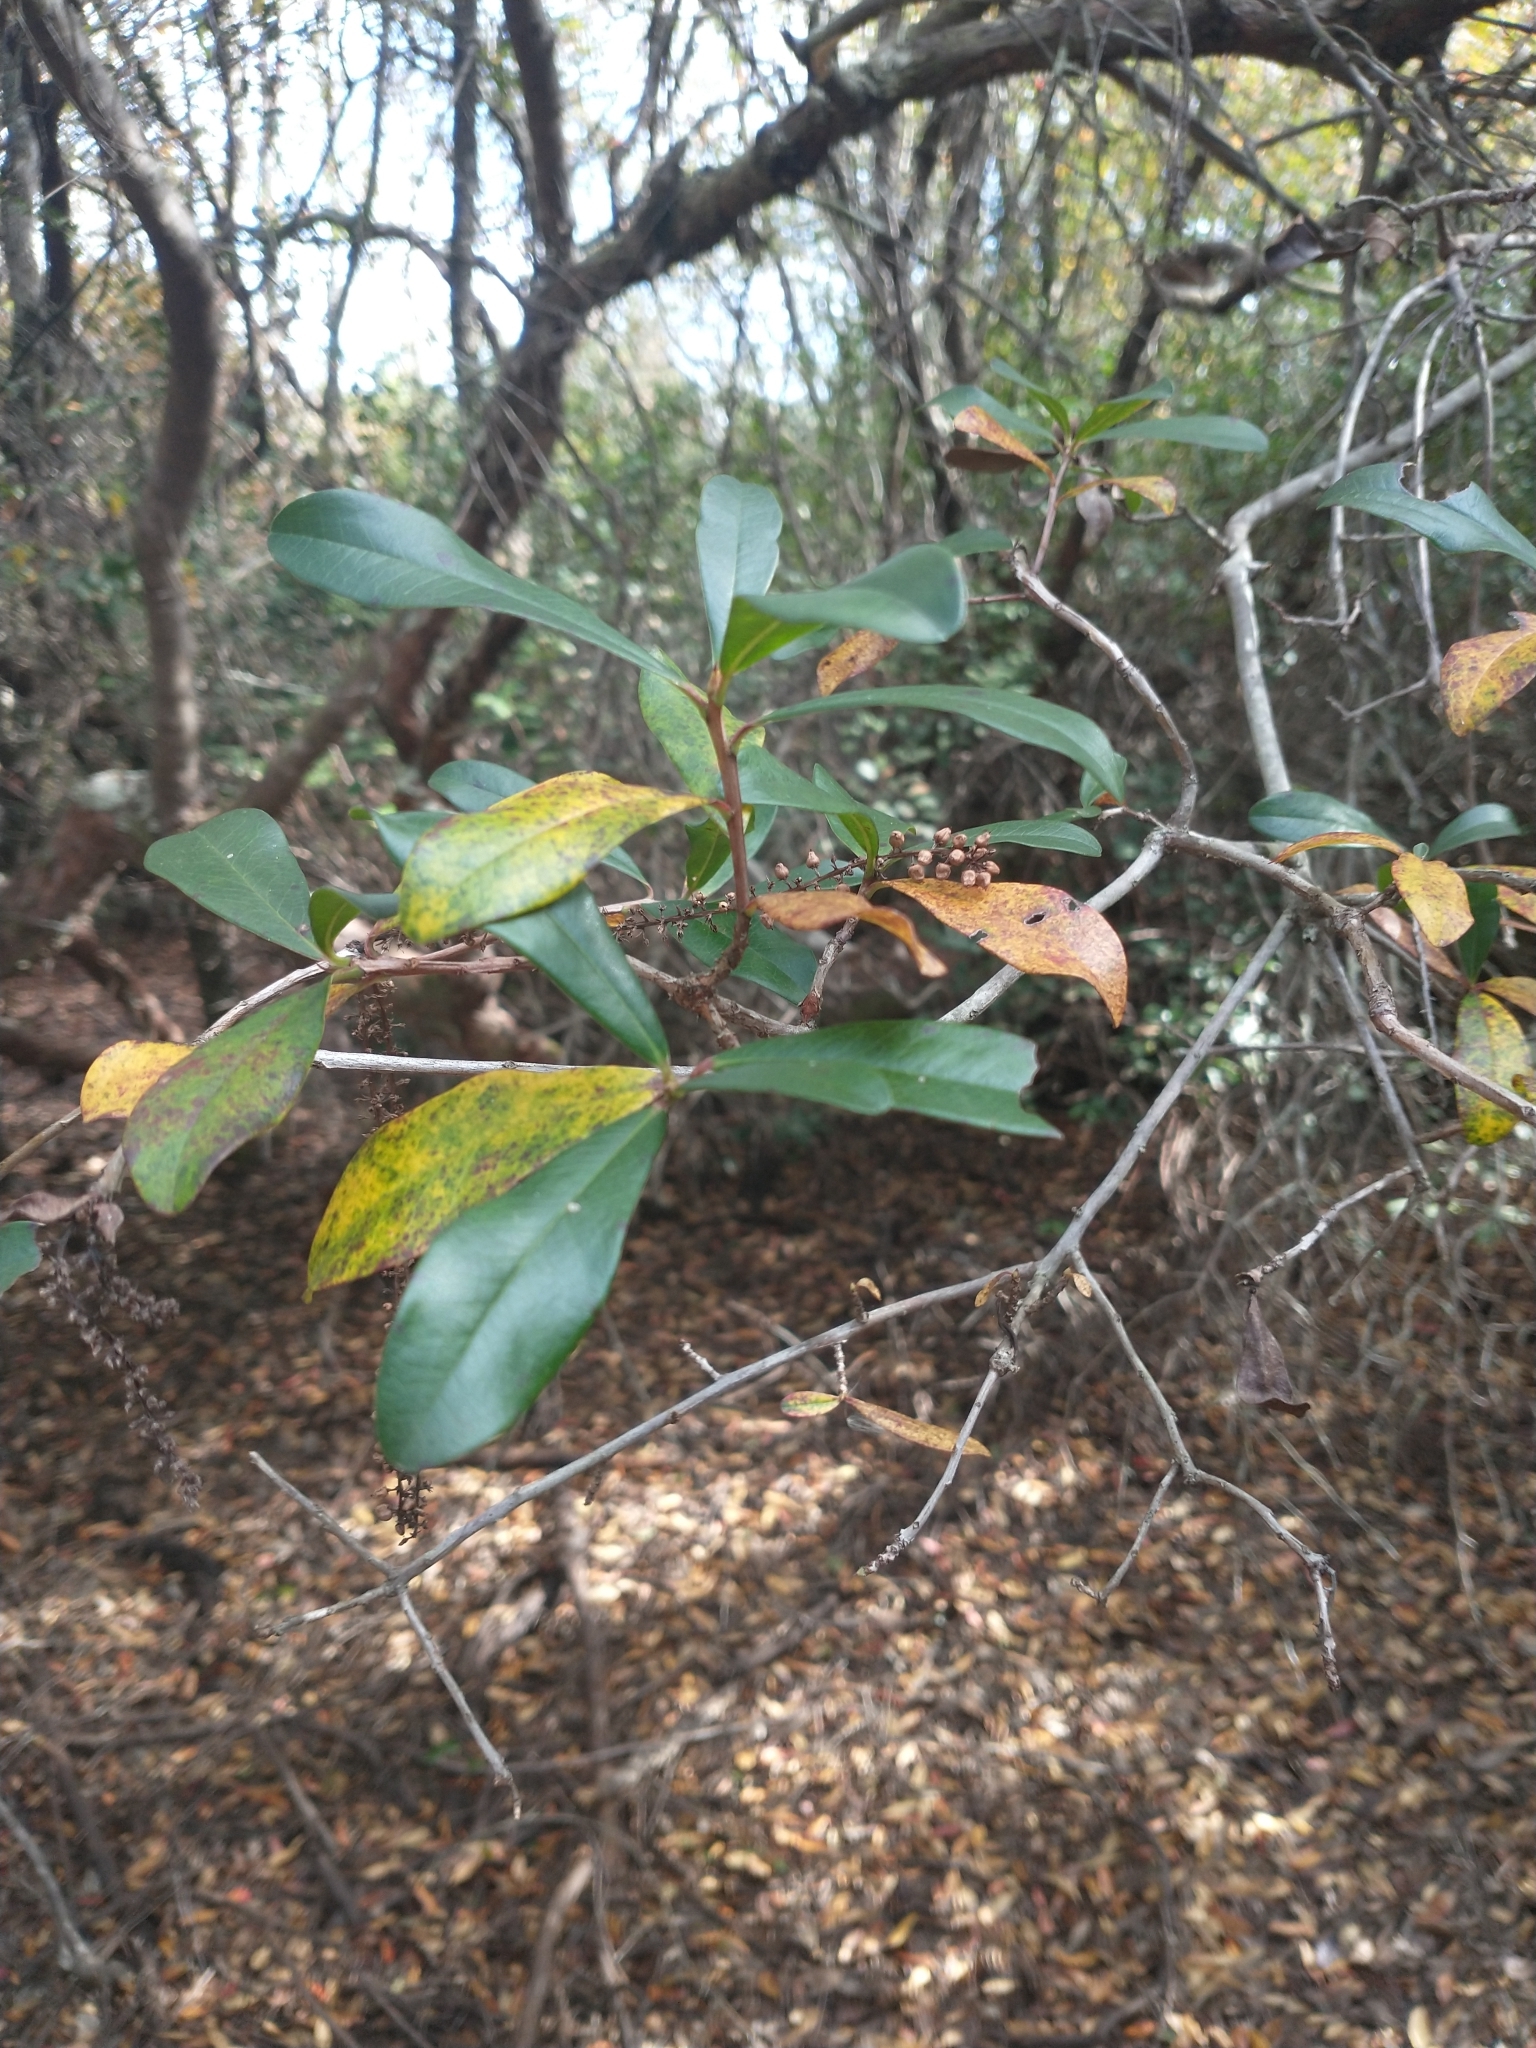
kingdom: Plantae
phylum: Tracheophyta
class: Magnoliopsida
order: Ericales
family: Cyrillaceae
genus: Cyrilla
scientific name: Cyrilla racemiflora
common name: Black titi
